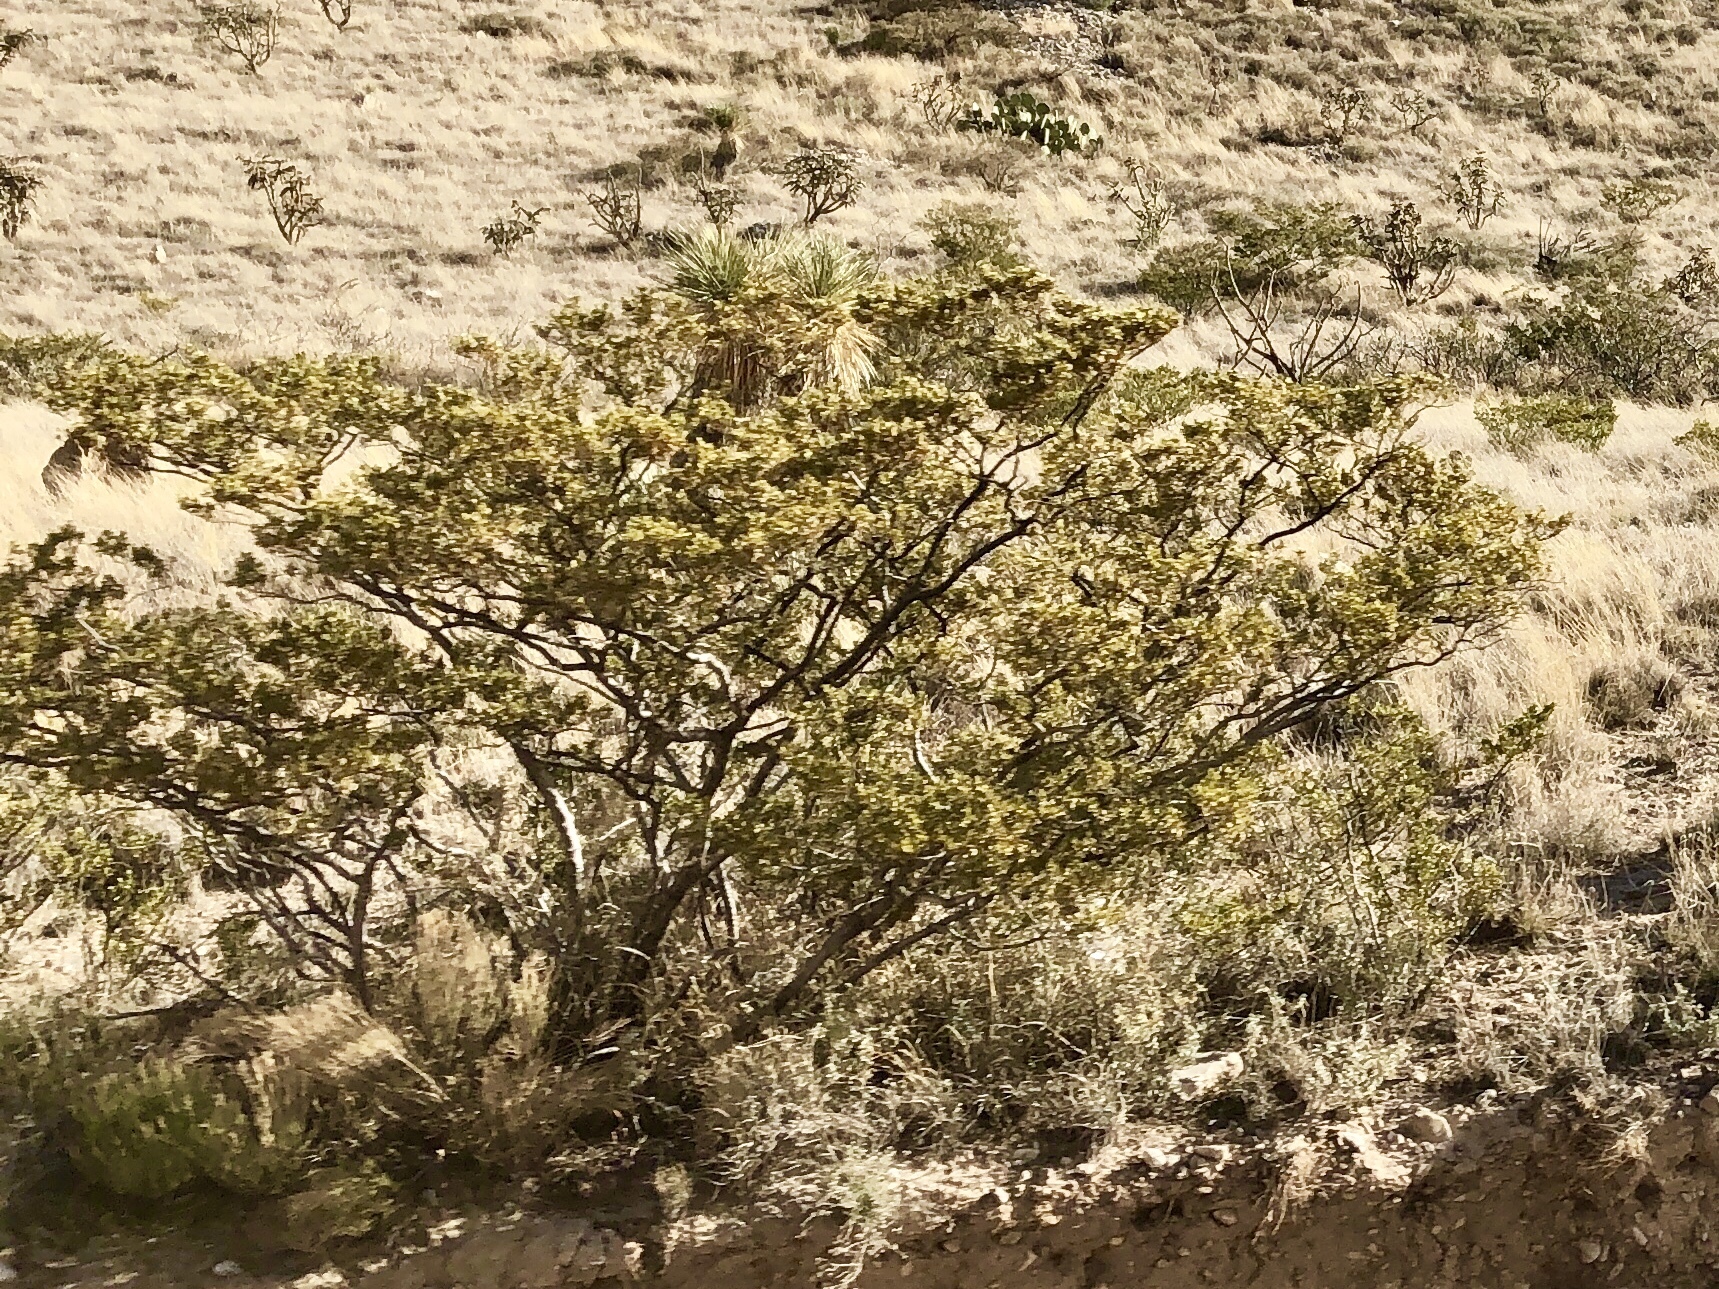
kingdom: Plantae
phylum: Tracheophyta
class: Magnoliopsida
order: Zygophyllales
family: Zygophyllaceae
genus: Larrea
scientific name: Larrea tridentata
